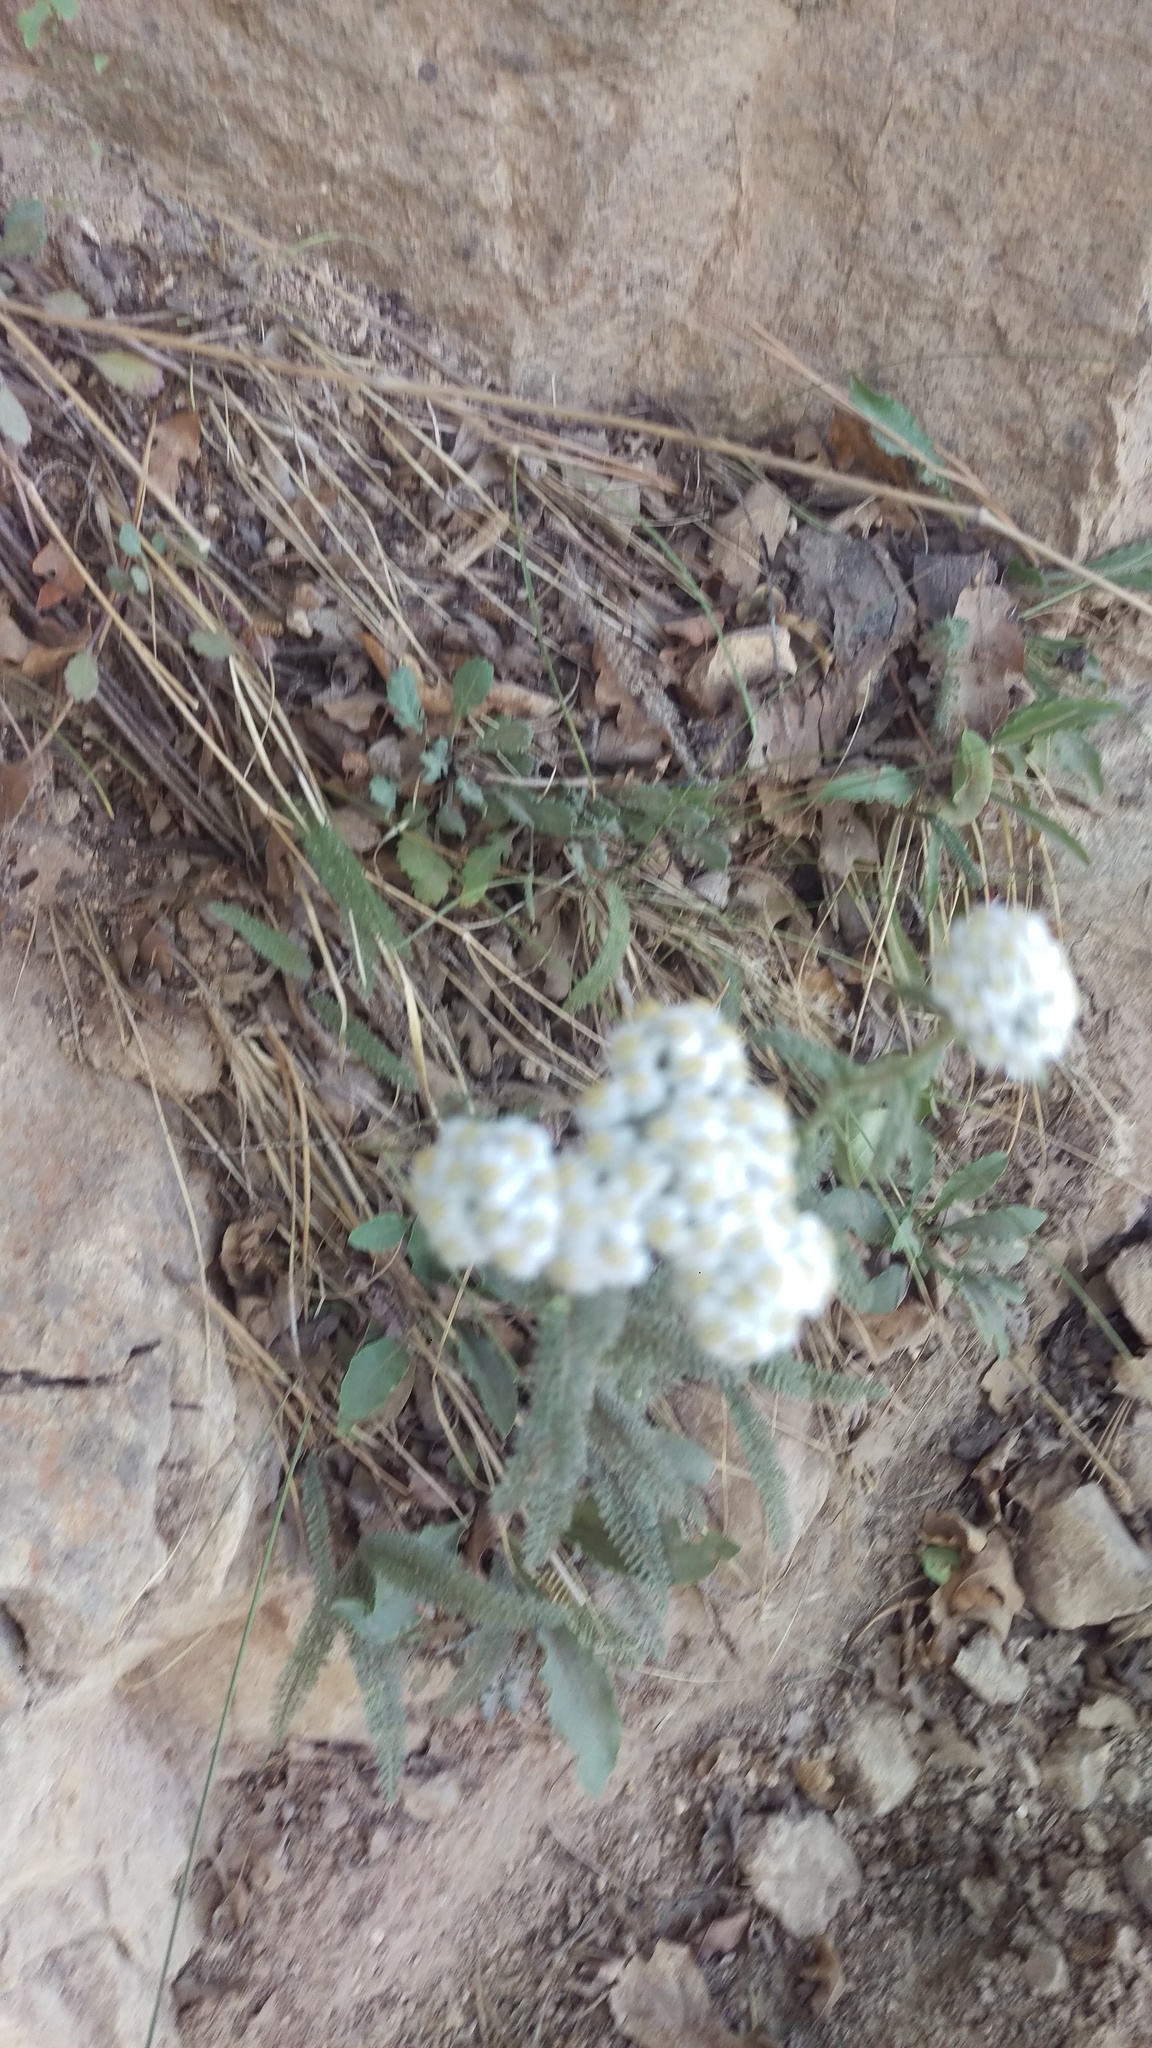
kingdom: Plantae
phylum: Tracheophyta
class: Magnoliopsida
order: Asterales
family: Asteraceae
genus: Achillea
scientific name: Achillea millefolium
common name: Yarrow
